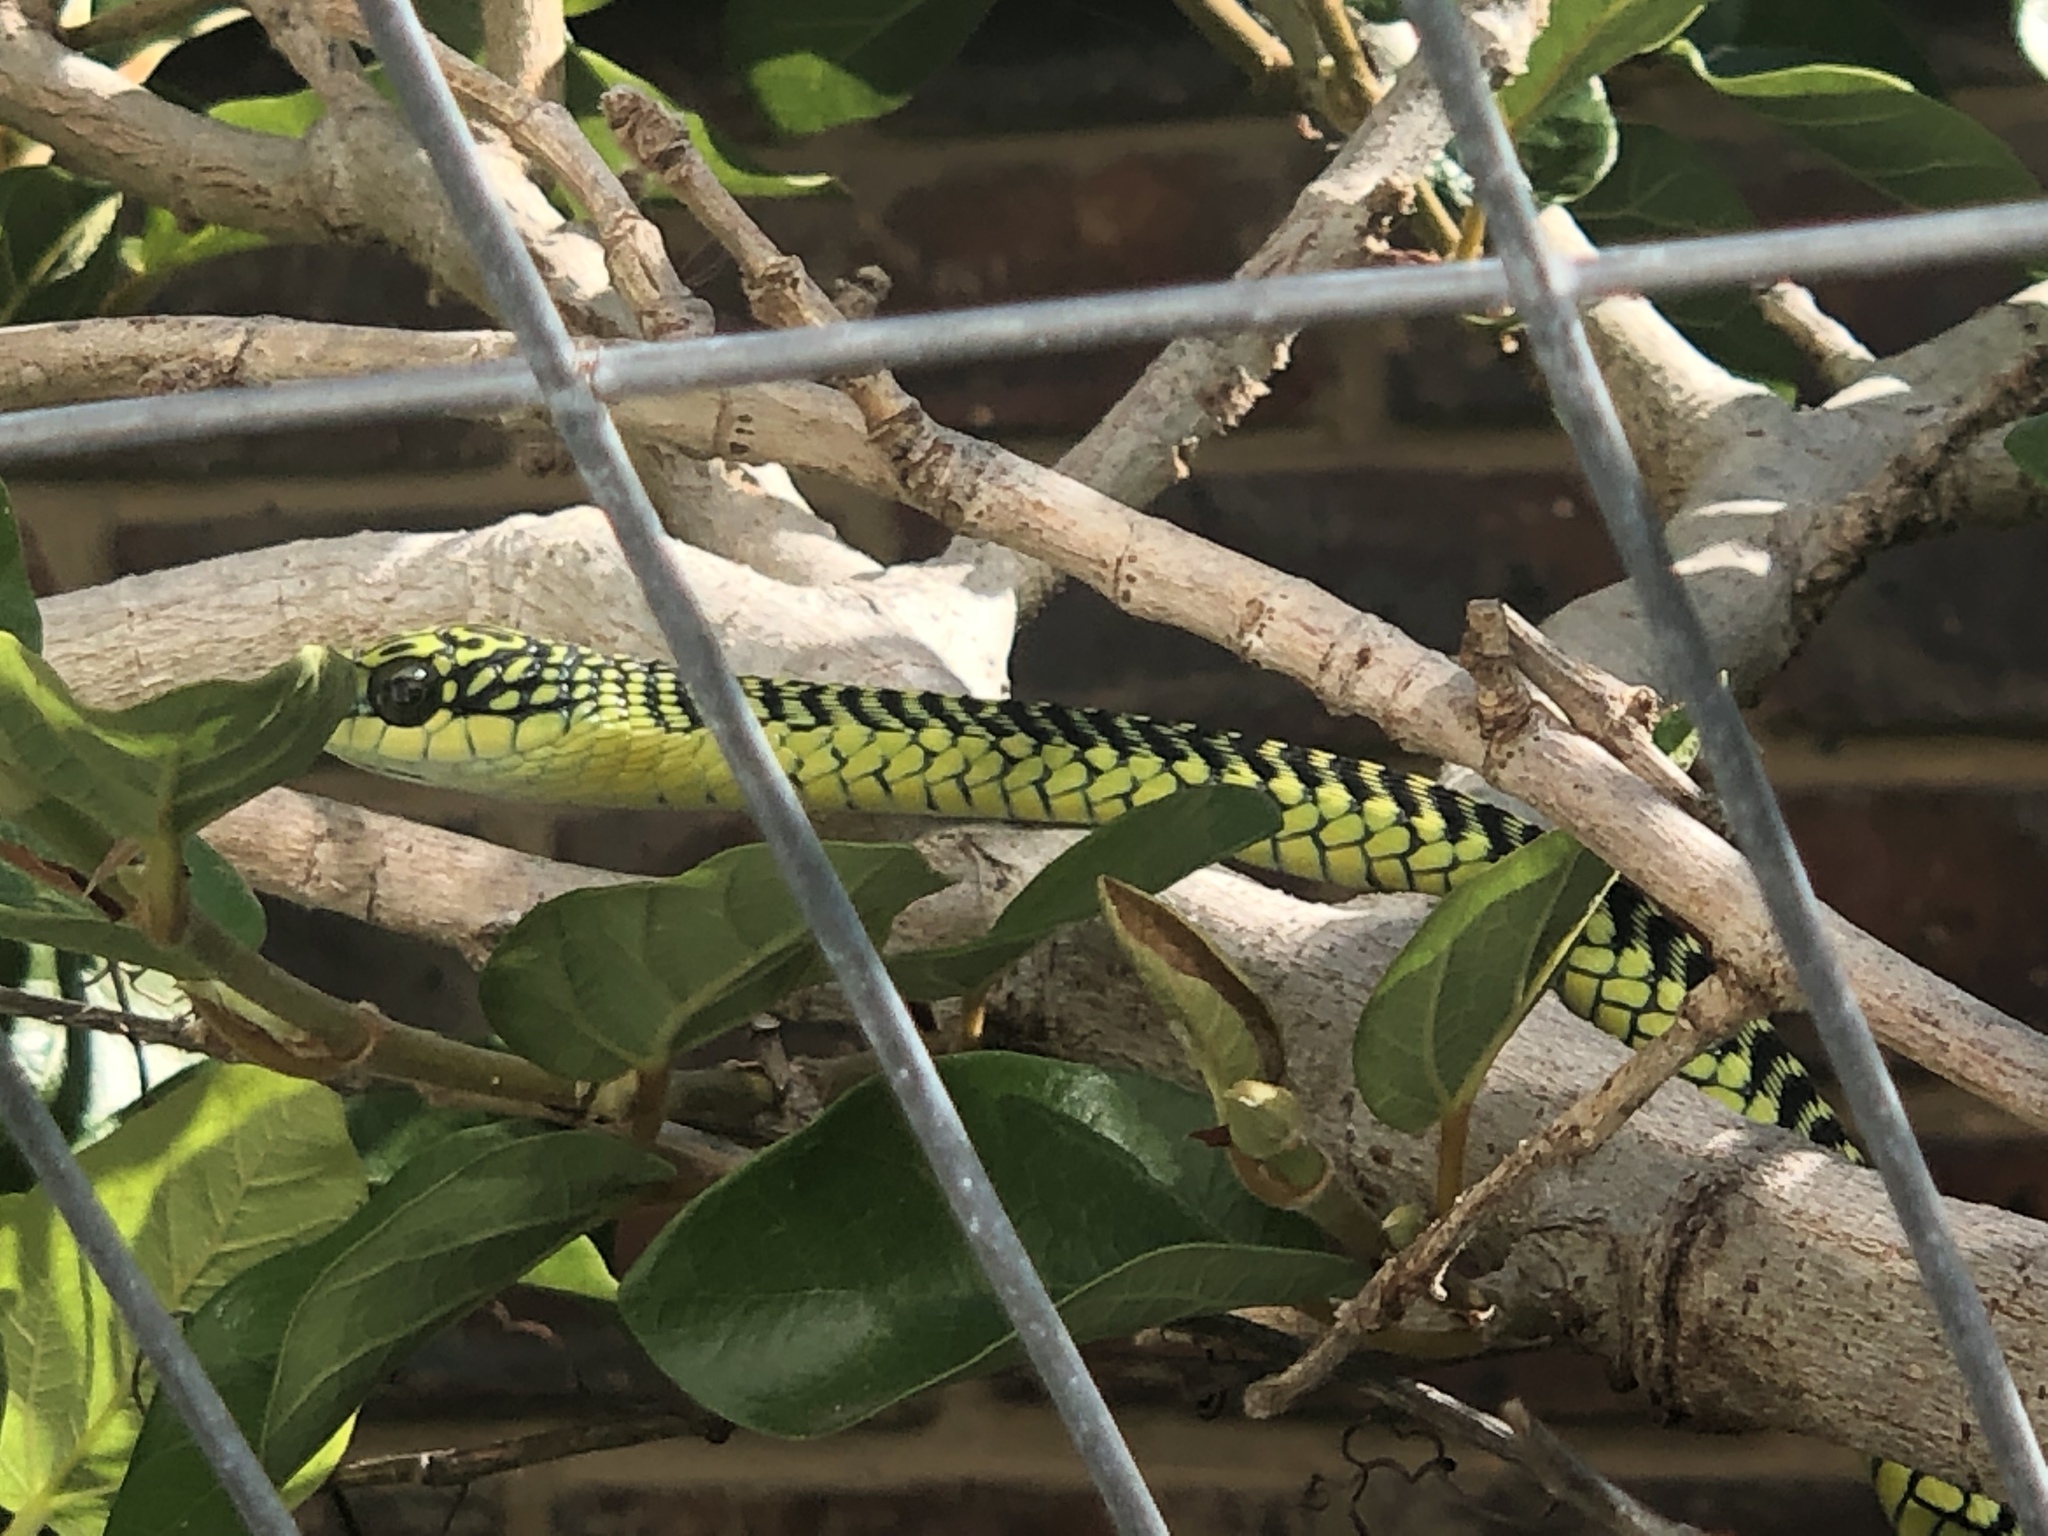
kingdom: Animalia
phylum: Chordata
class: Squamata
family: Colubridae
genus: Dispholidus
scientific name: Dispholidus typus
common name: Boomslang
